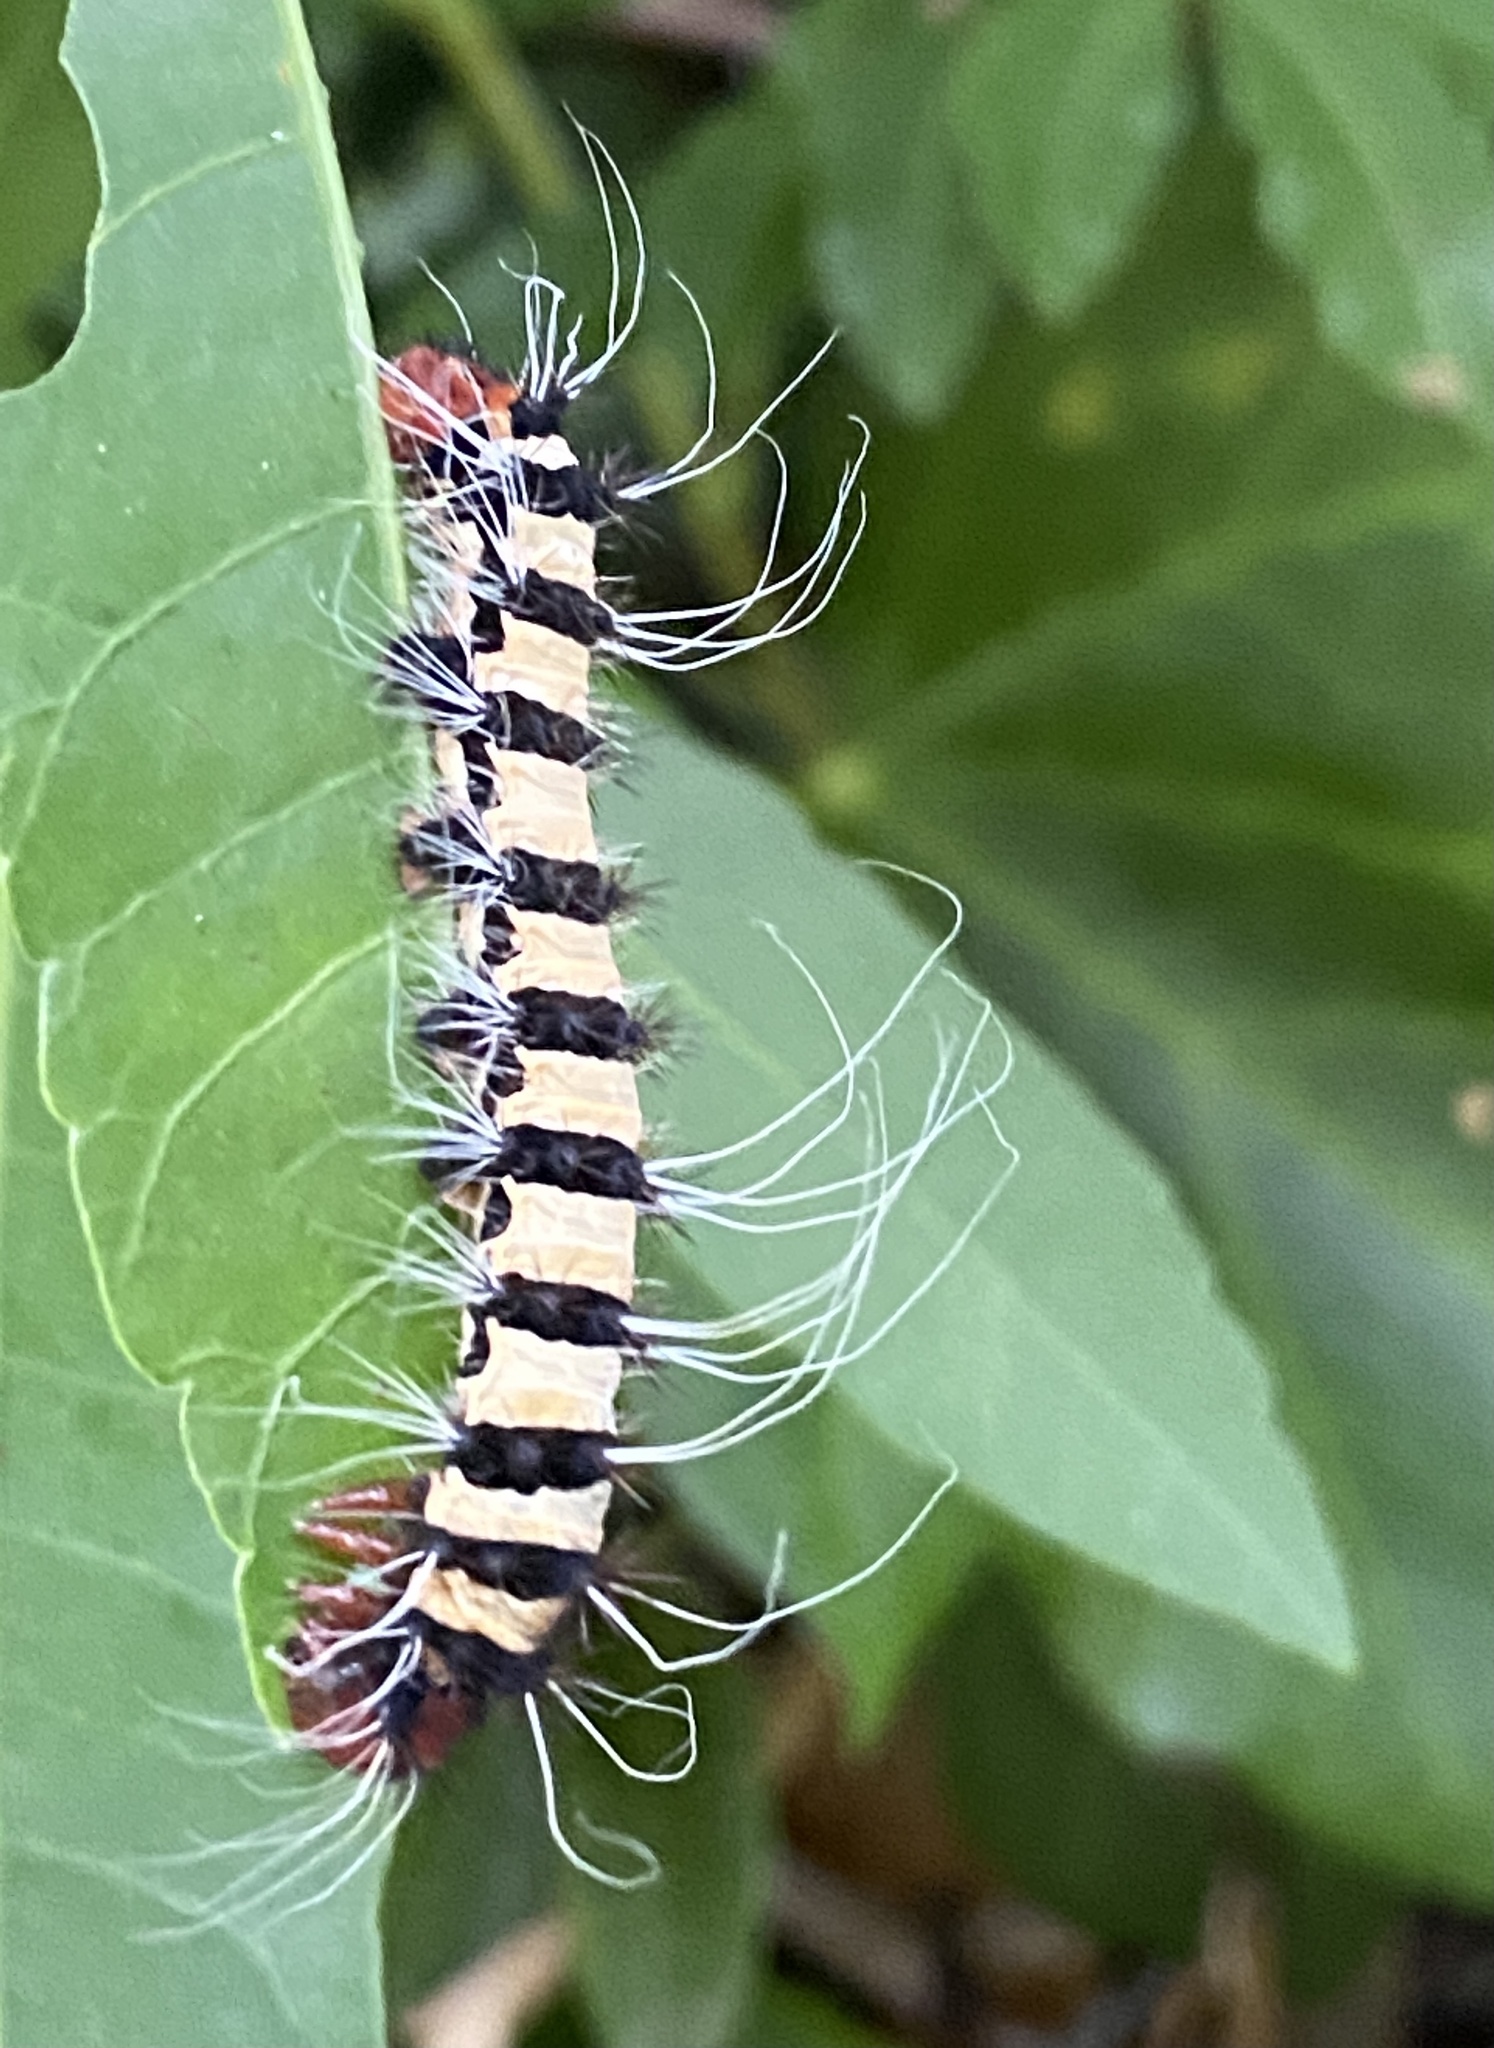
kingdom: Animalia
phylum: Arthropoda
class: Insecta
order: Lepidoptera
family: Saturniidae
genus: Holocerina
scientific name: Holocerina smilax
